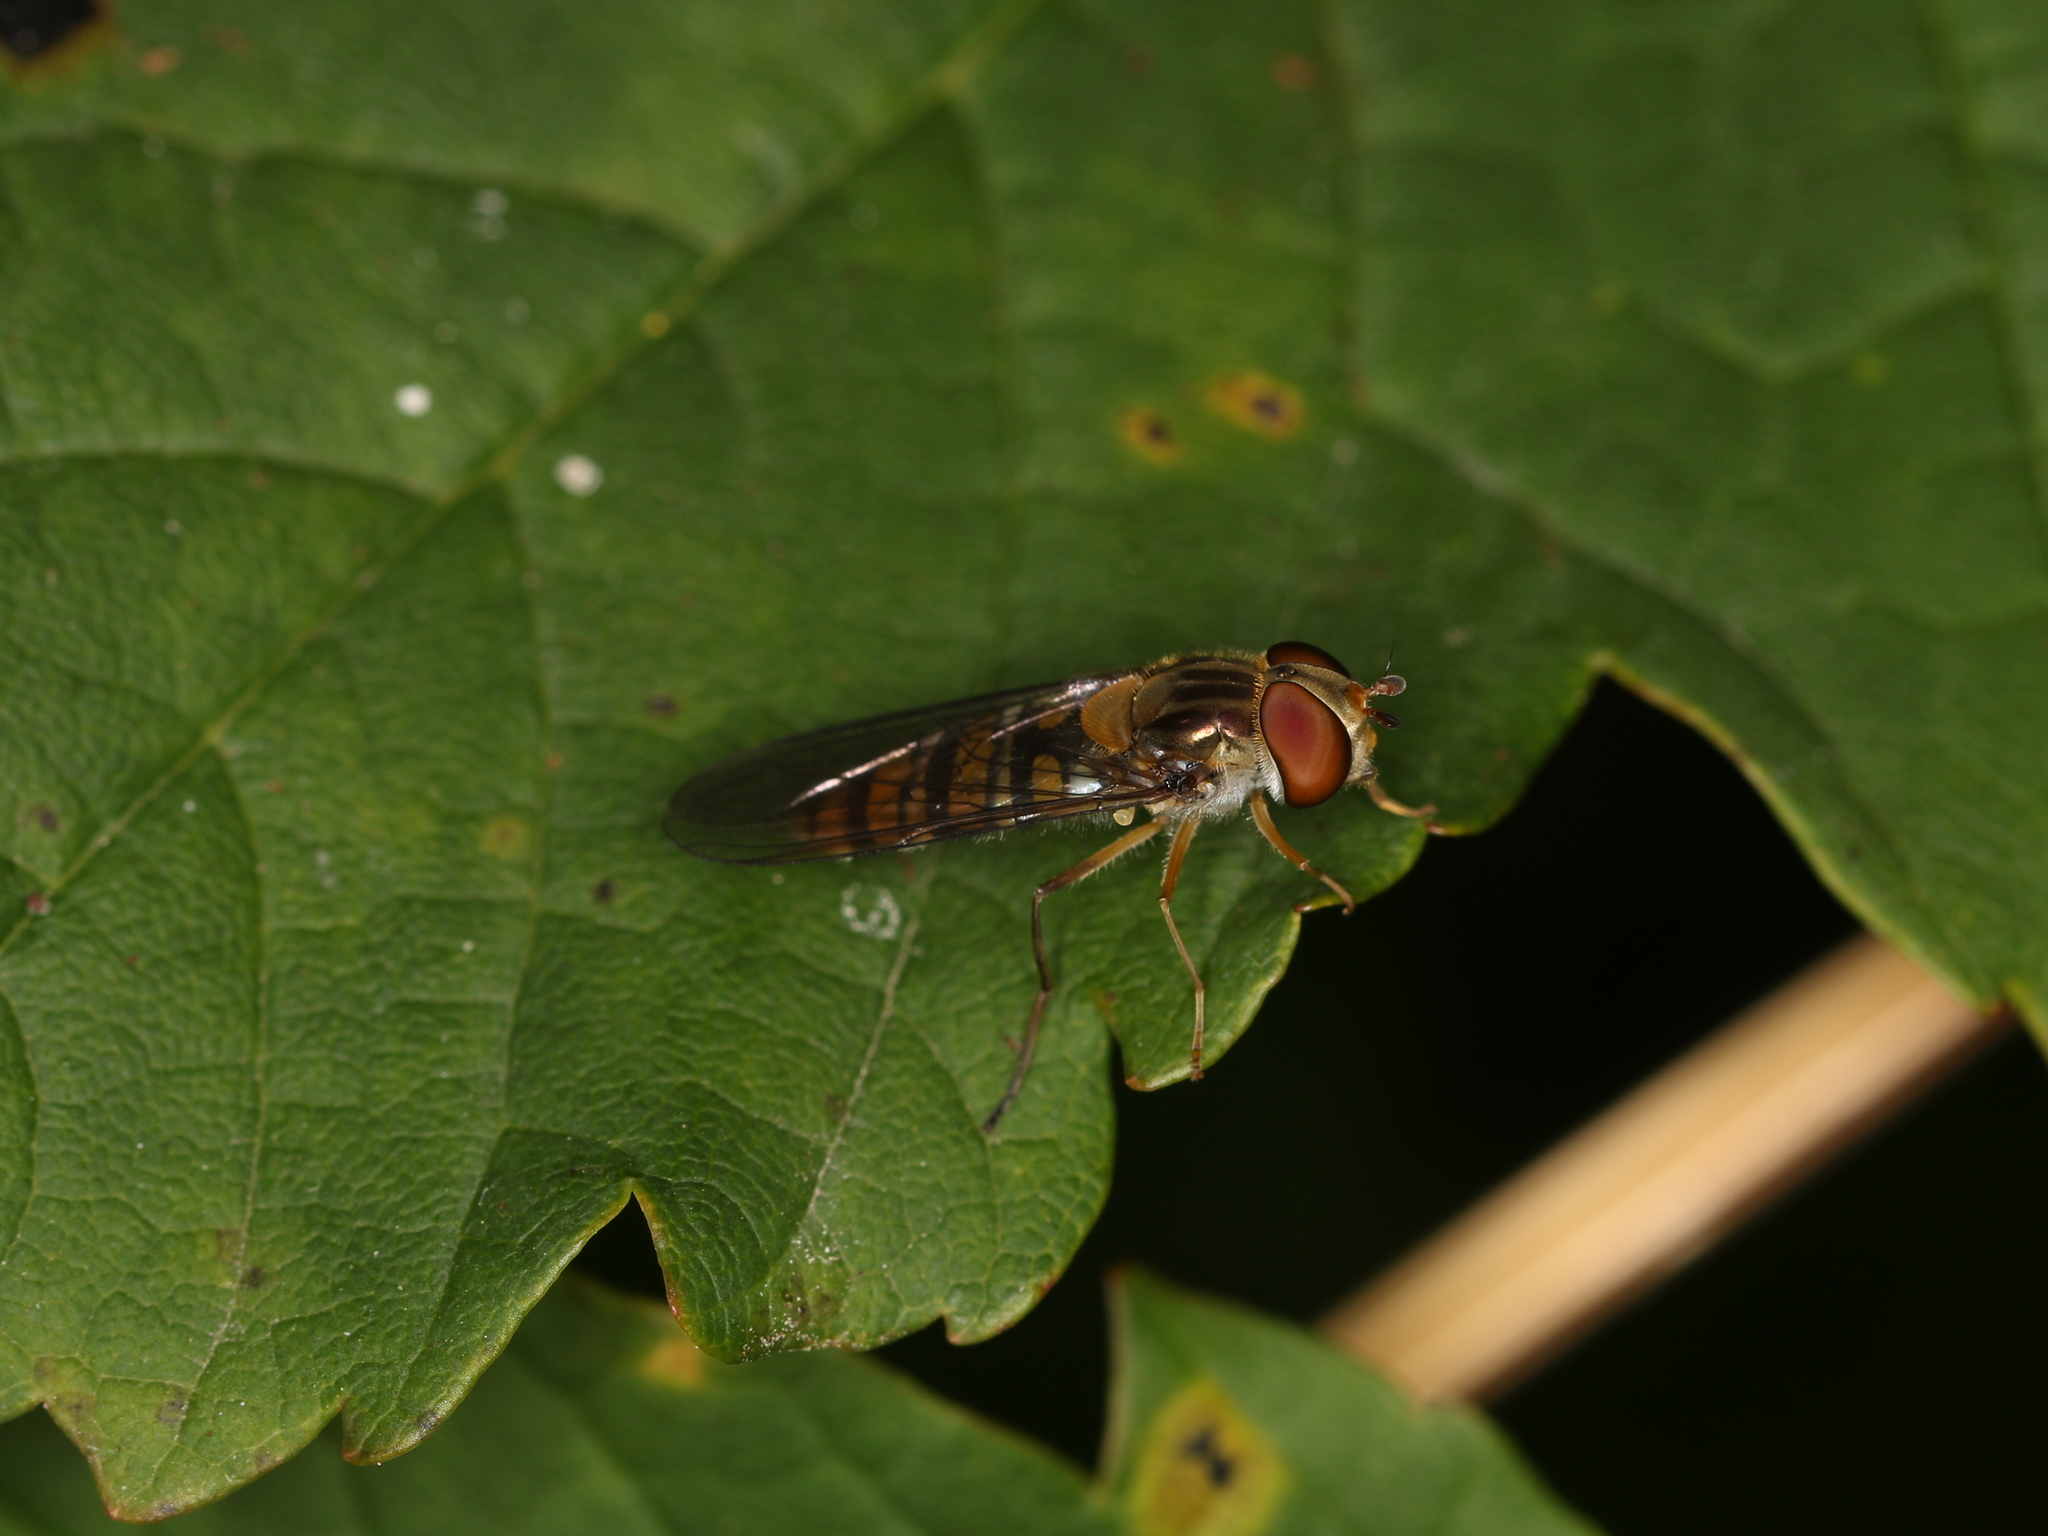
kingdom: Animalia
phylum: Arthropoda
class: Insecta
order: Diptera
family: Syrphidae
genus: Episyrphus
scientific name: Episyrphus balteatus
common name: Marmalade hoverfly
